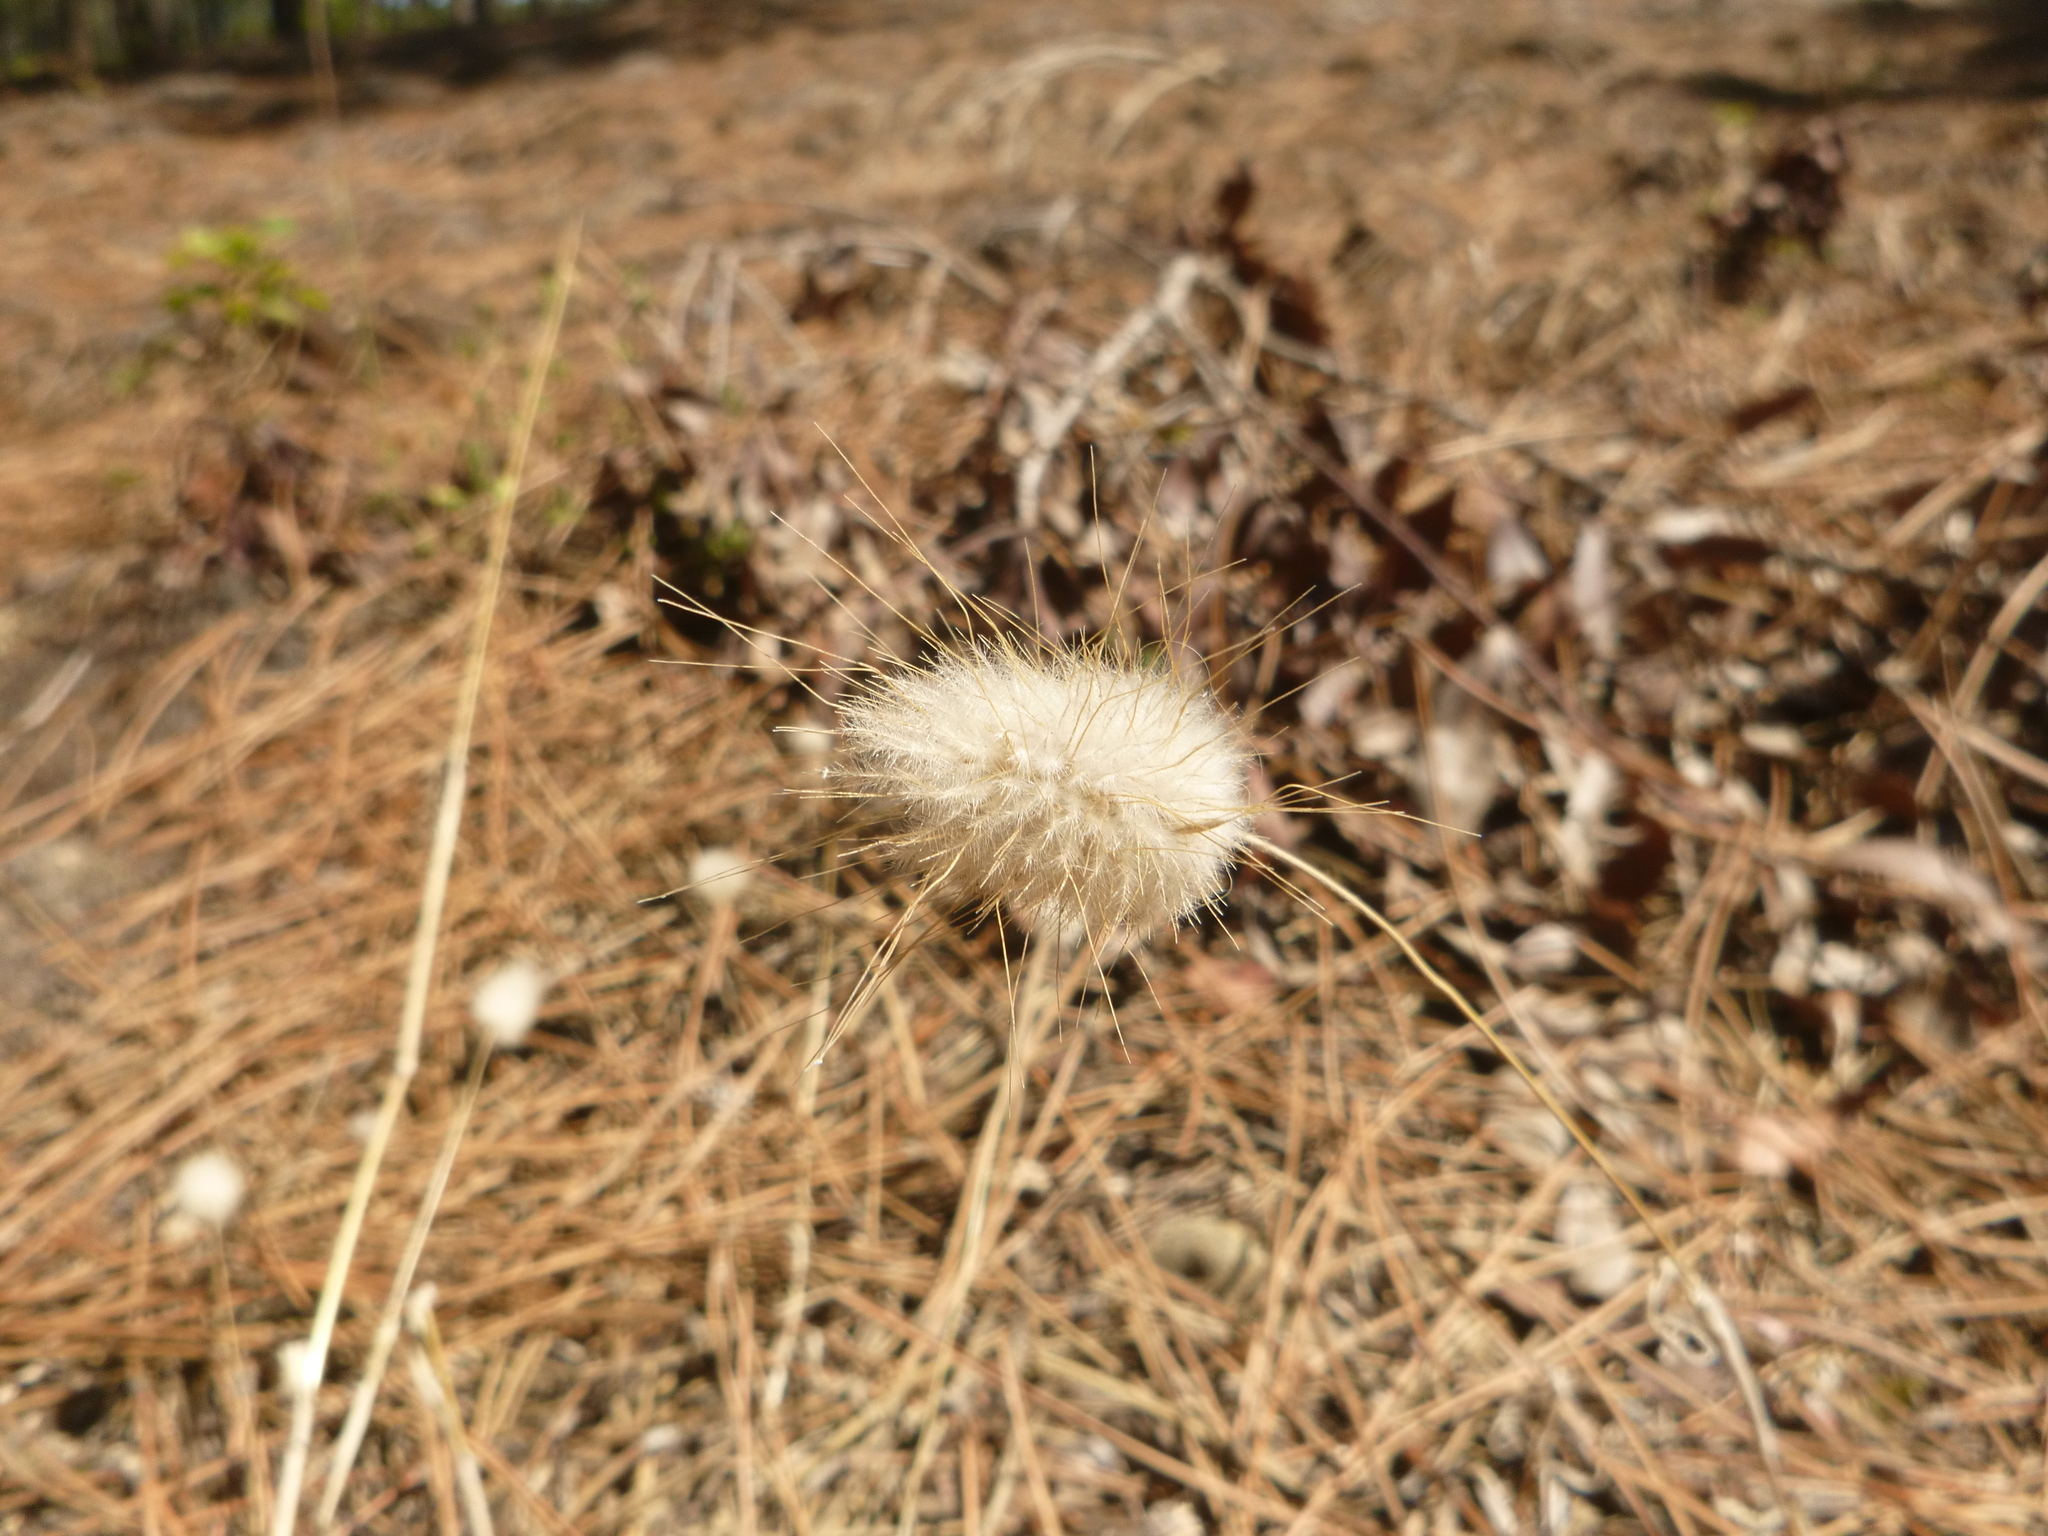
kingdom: Plantae
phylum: Tracheophyta
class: Liliopsida
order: Poales
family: Poaceae
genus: Lagurus
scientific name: Lagurus ovatus
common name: Hare's-tail
